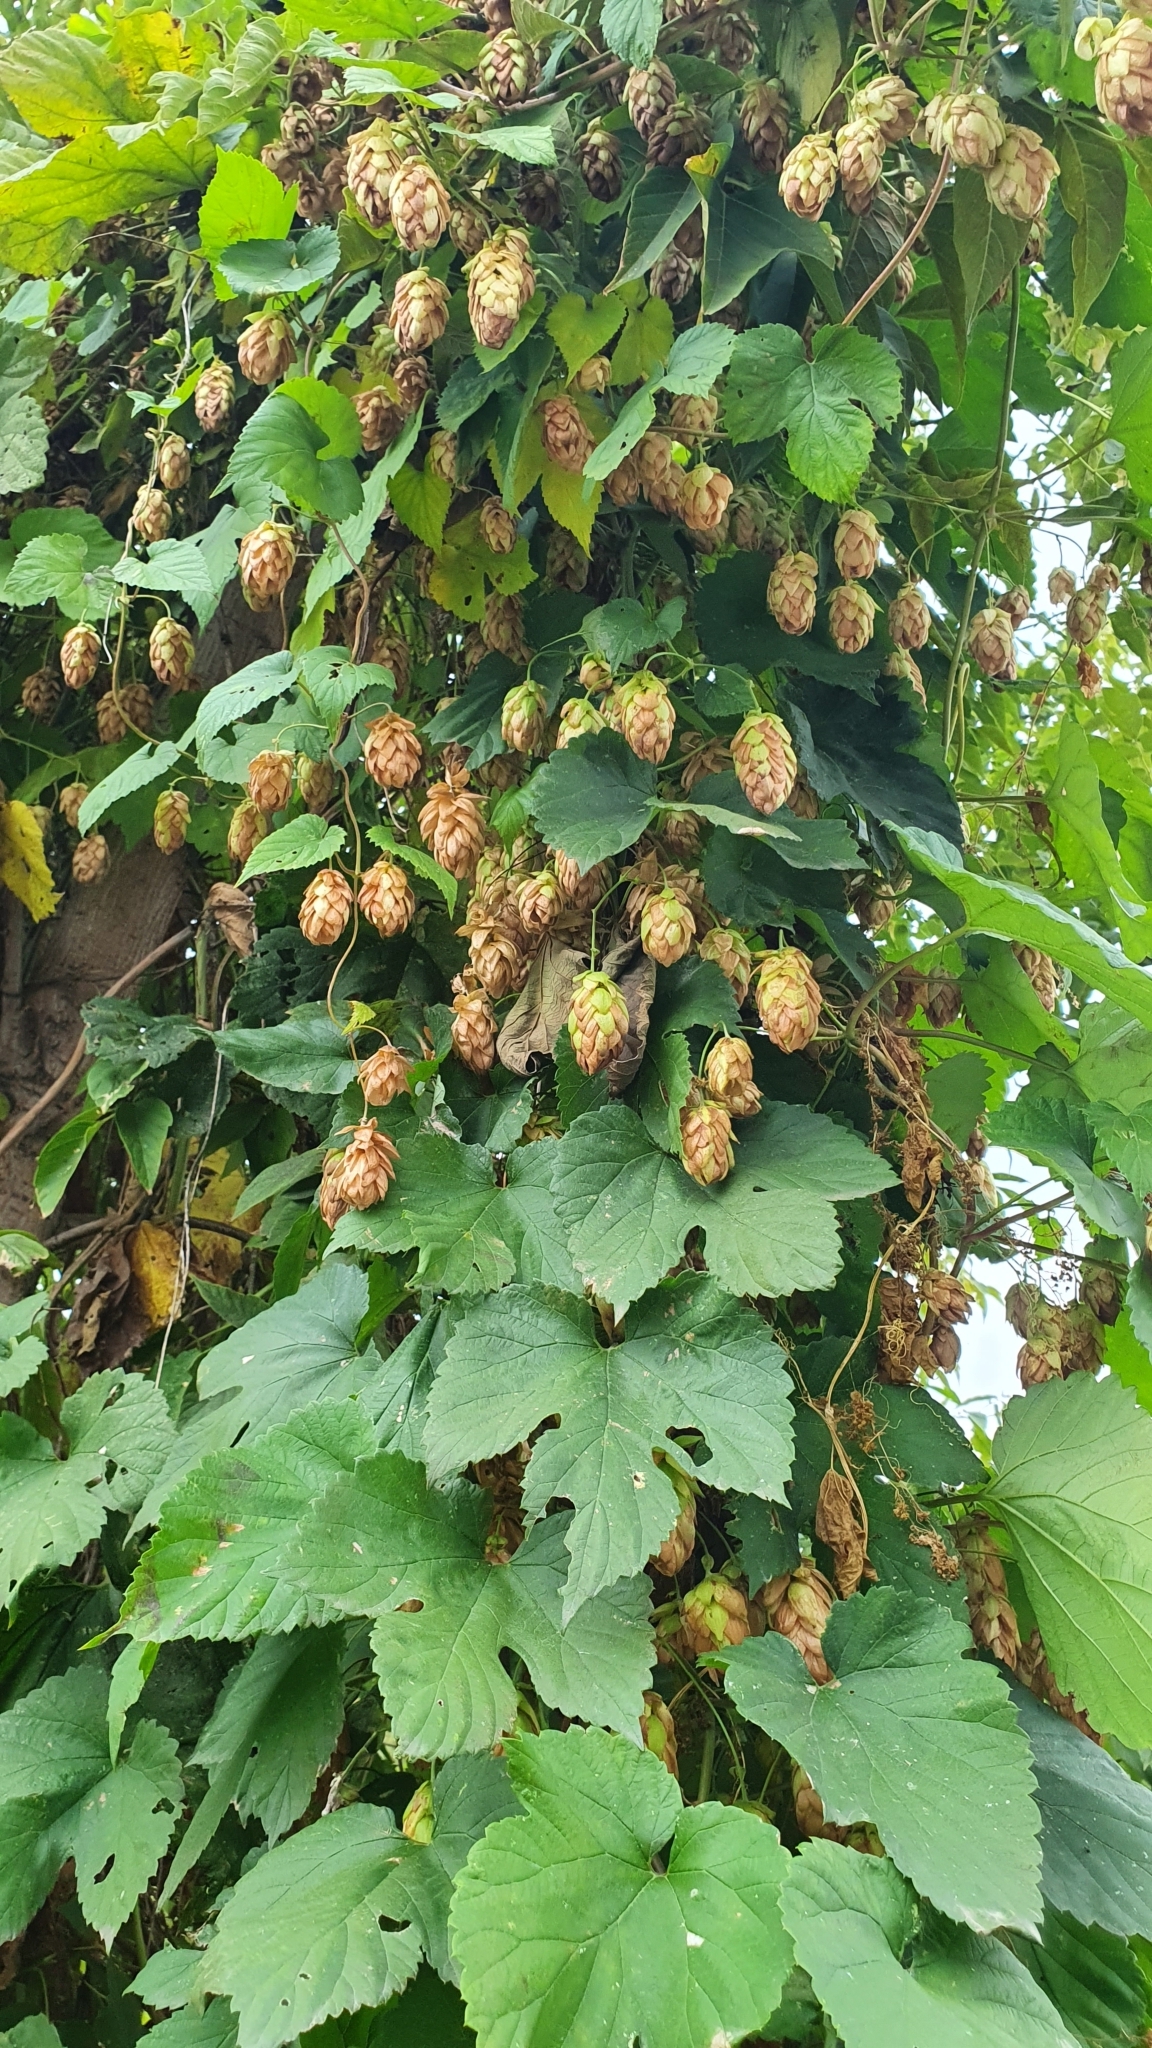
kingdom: Plantae
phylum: Tracheophyta
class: Magnoliopsida
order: Rosales
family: Cannabaceae
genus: Humulus
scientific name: Humulus lupulus
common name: Hop
